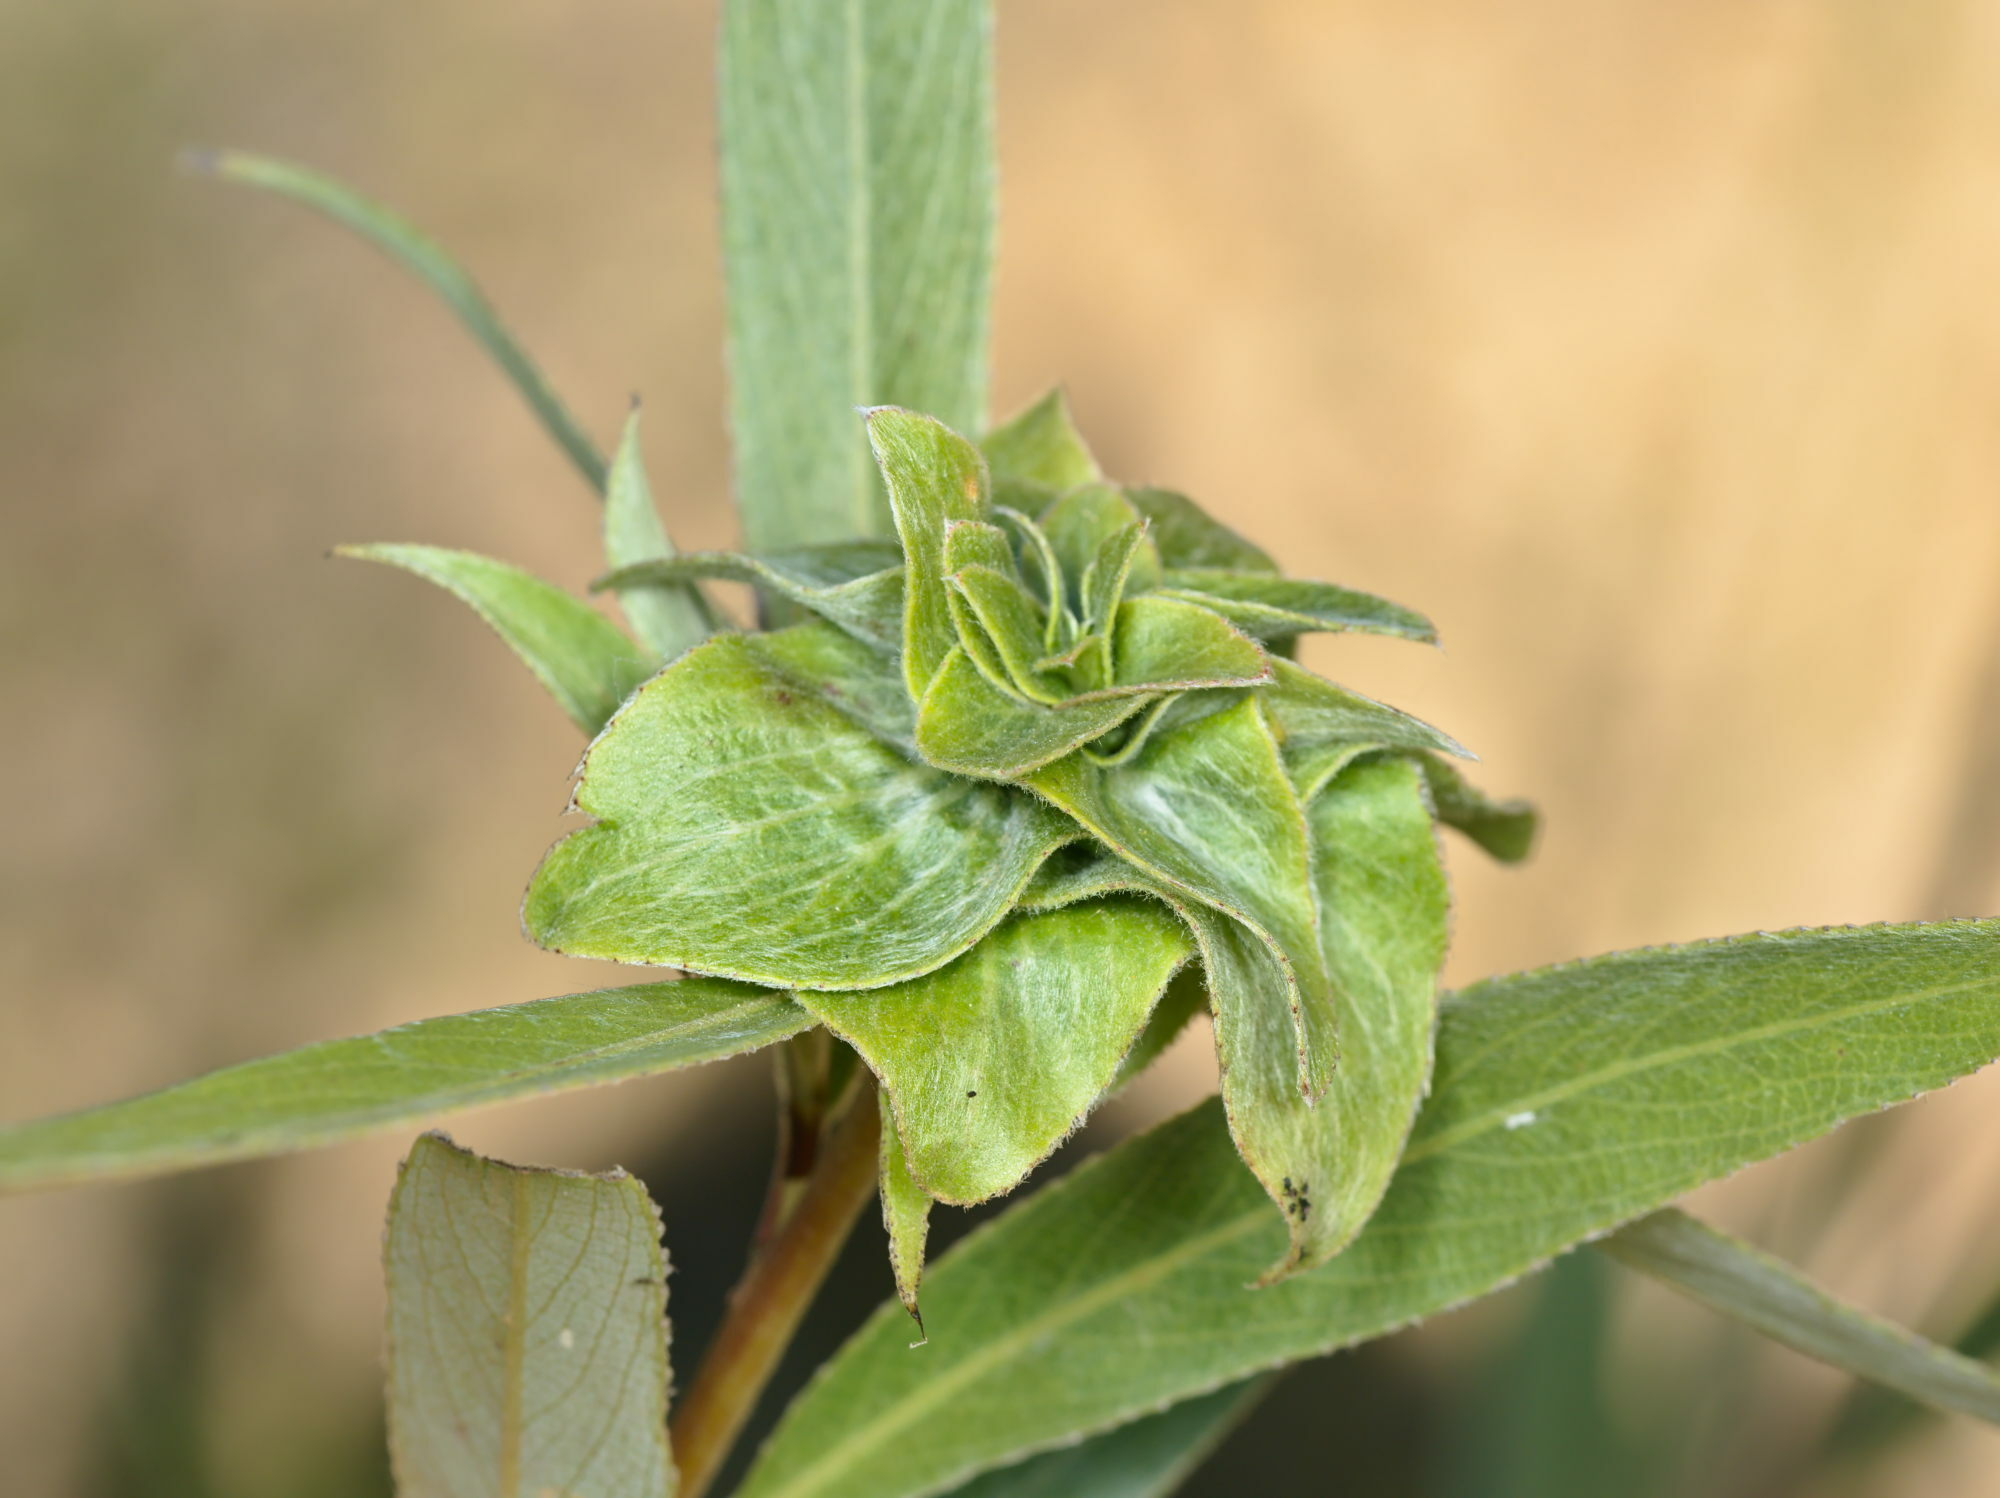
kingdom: Animalia
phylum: Arthropoda
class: Insecta
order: Diptera
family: Cecidomyiidae
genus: Rabdophaga
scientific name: Rabdophaga rosaria
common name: Willow rose gall midge
